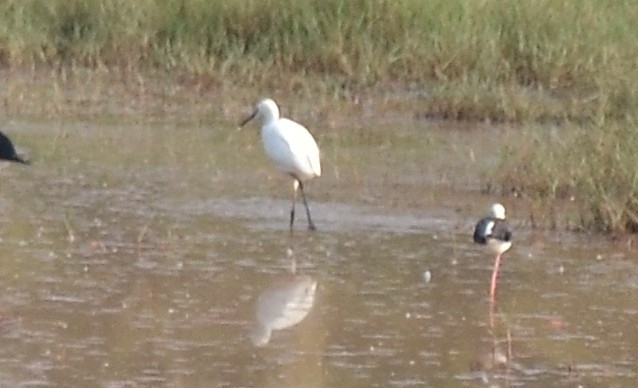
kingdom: Animalia
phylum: Chordata
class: Aves
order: Pelecaniformes
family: Ardeidae
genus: Egretta
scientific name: Egretta garzetta
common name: Little egret
